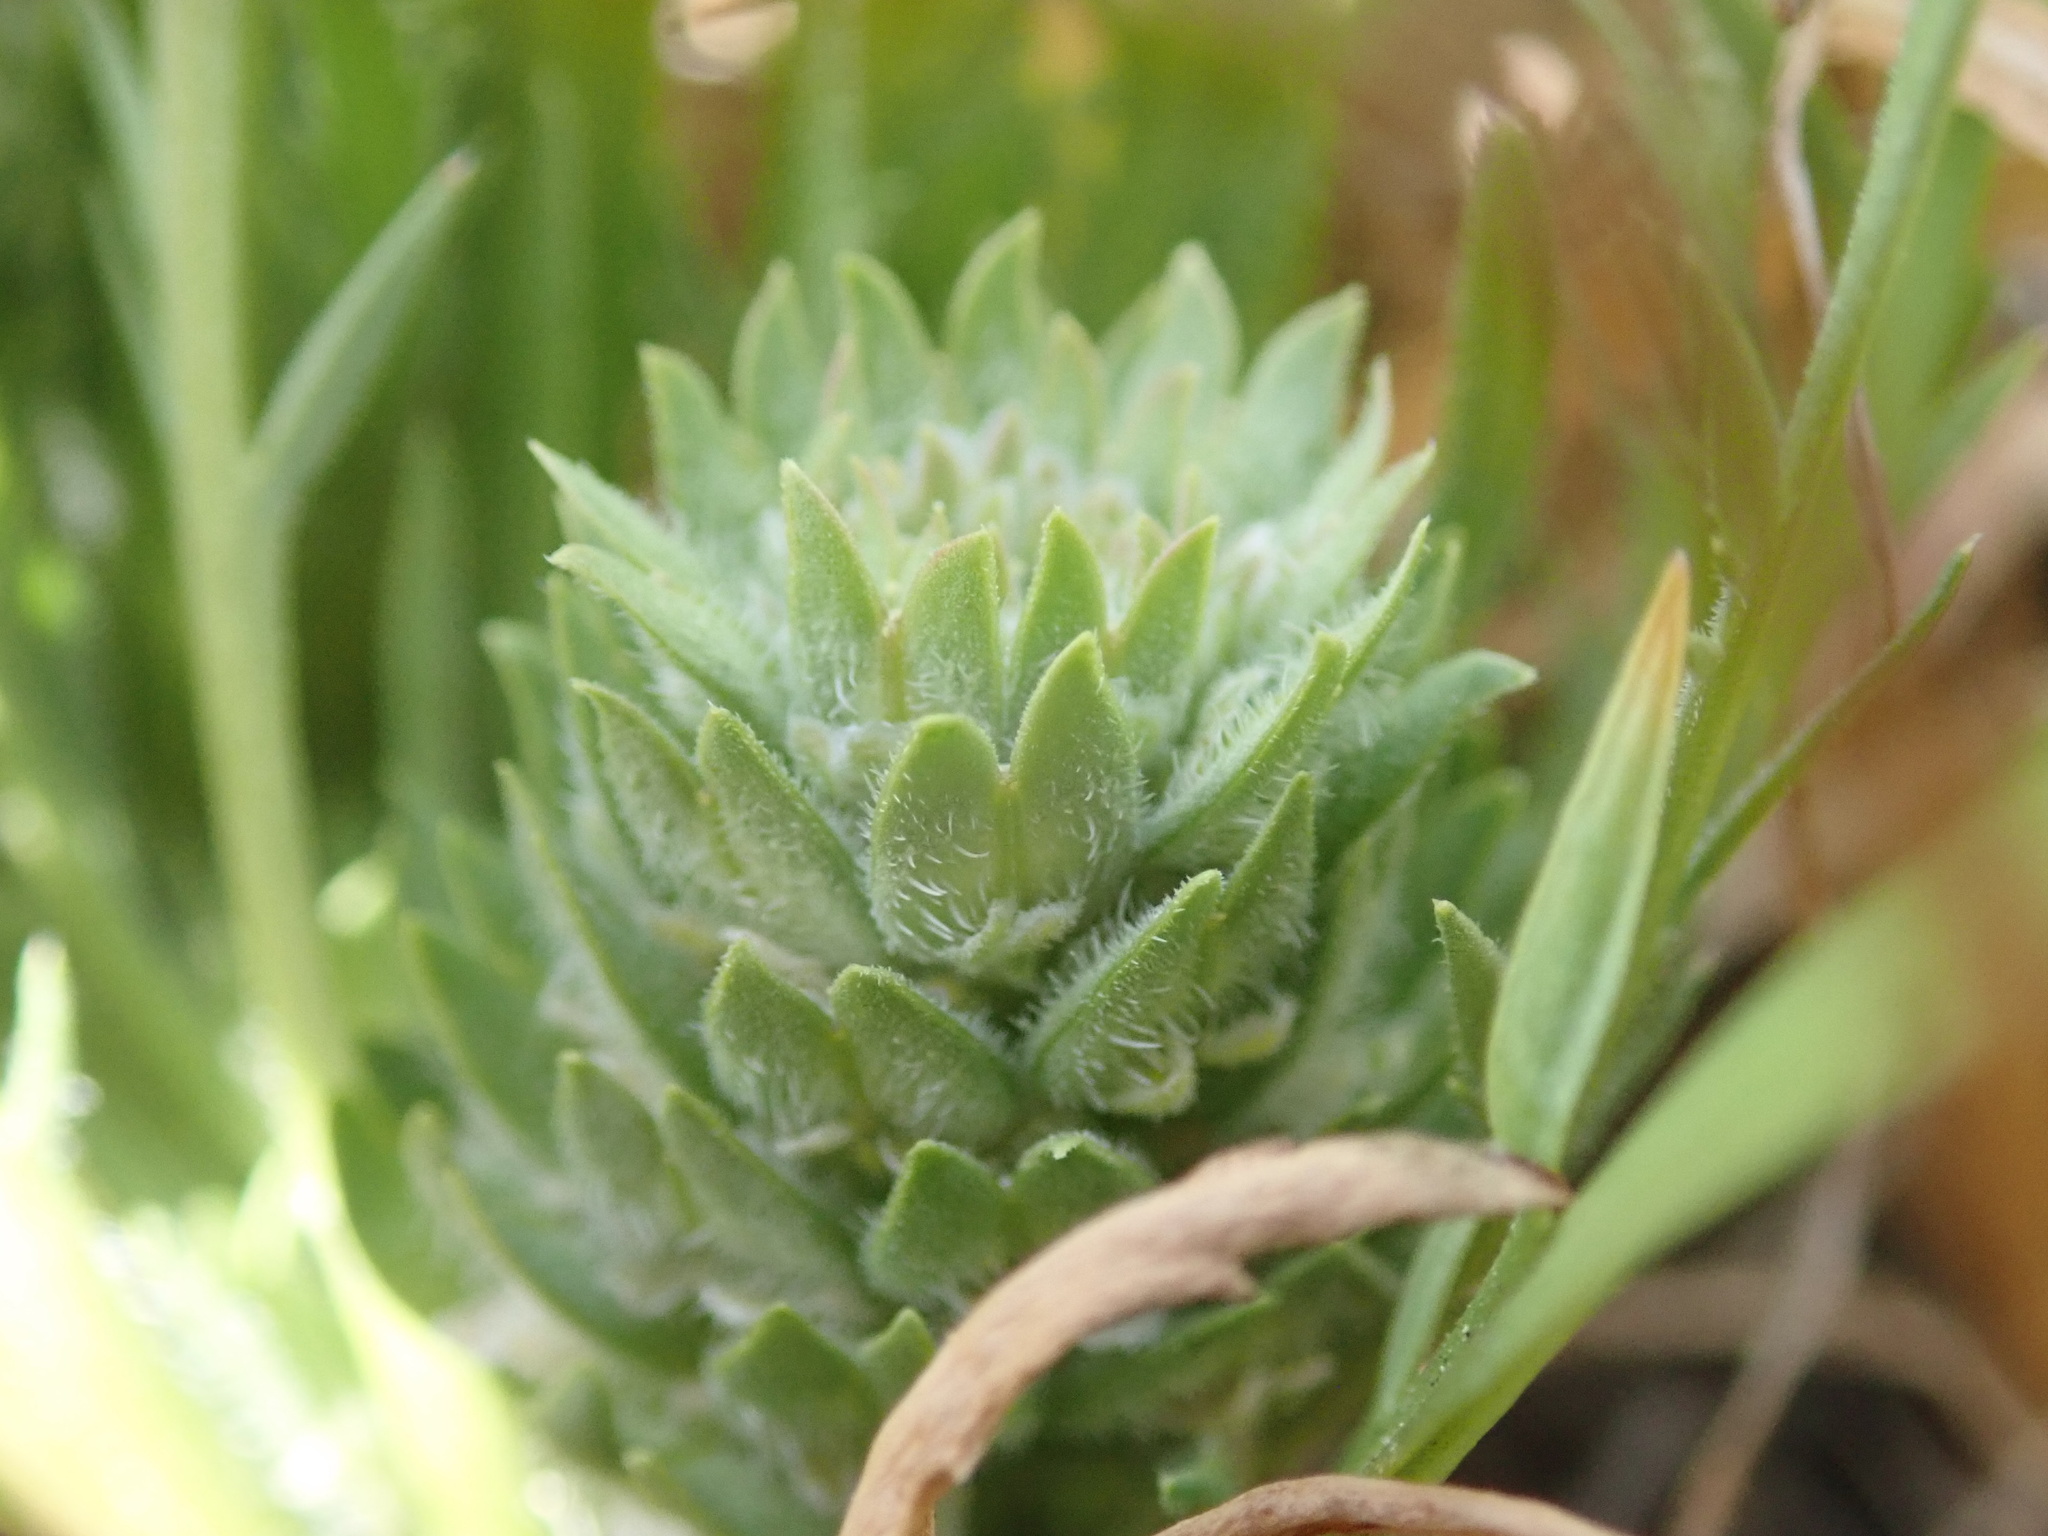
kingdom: Plantae
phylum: Tracheophyta
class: Magnoliopsida
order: Brassicales
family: Brassicaceae
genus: Lepidium
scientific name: Lepidium latipes
